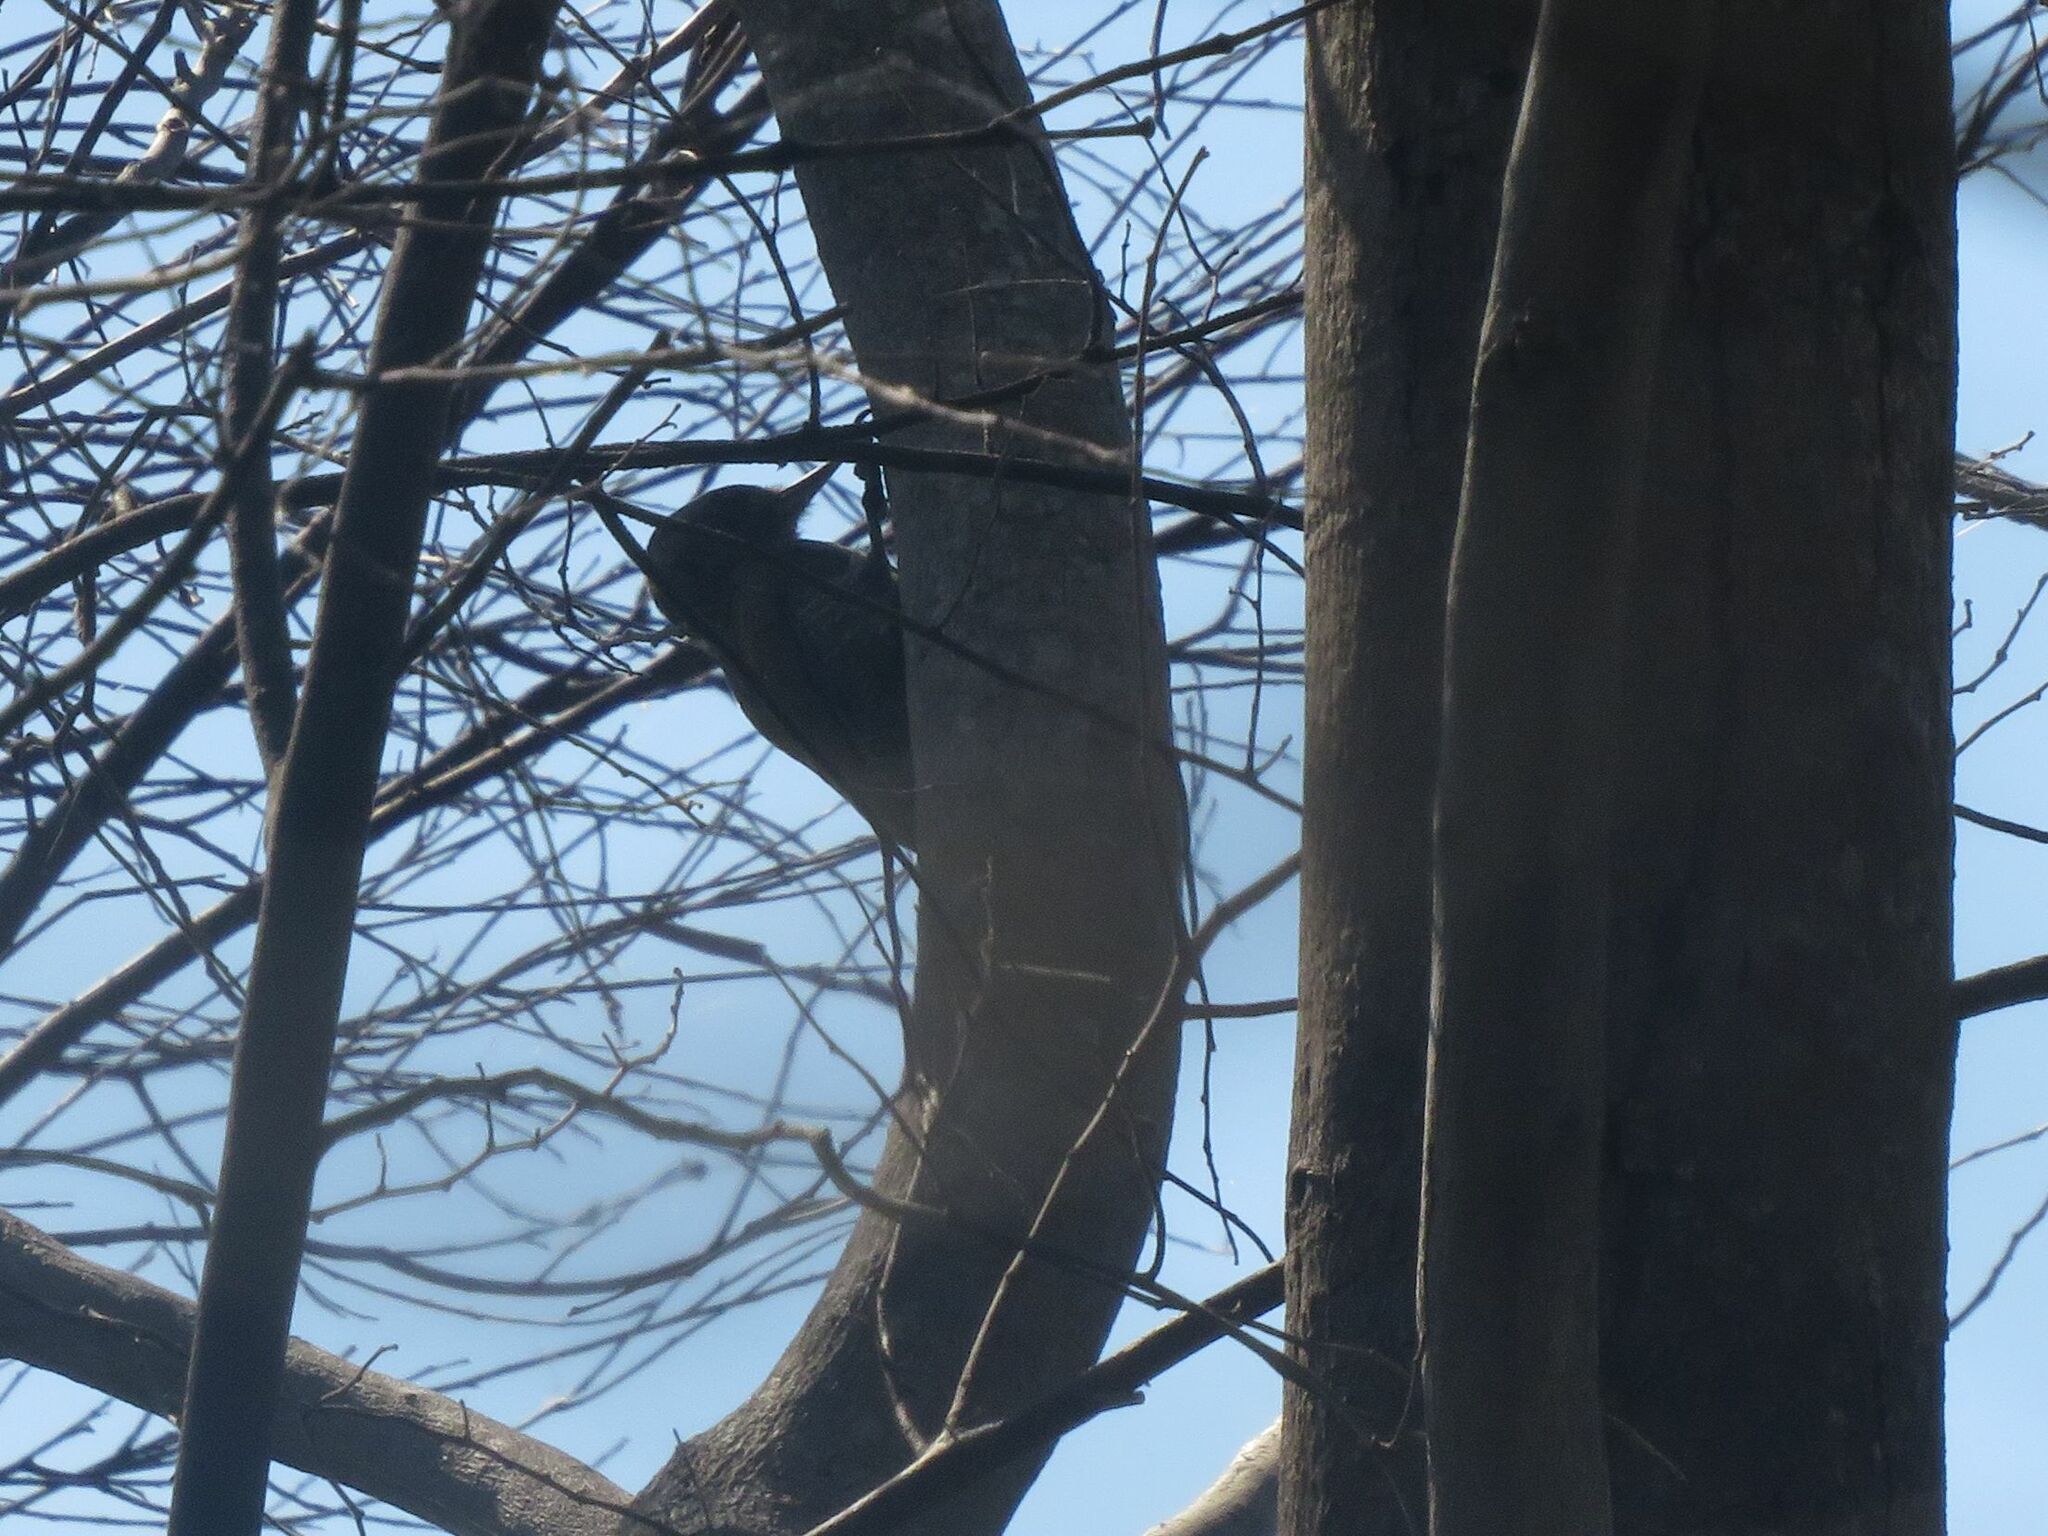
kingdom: Animalia
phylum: Chordata
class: Aves
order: Piciformes
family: Picidae
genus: Veniliornis
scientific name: Veniliornis passerinus
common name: Little woodpecker
